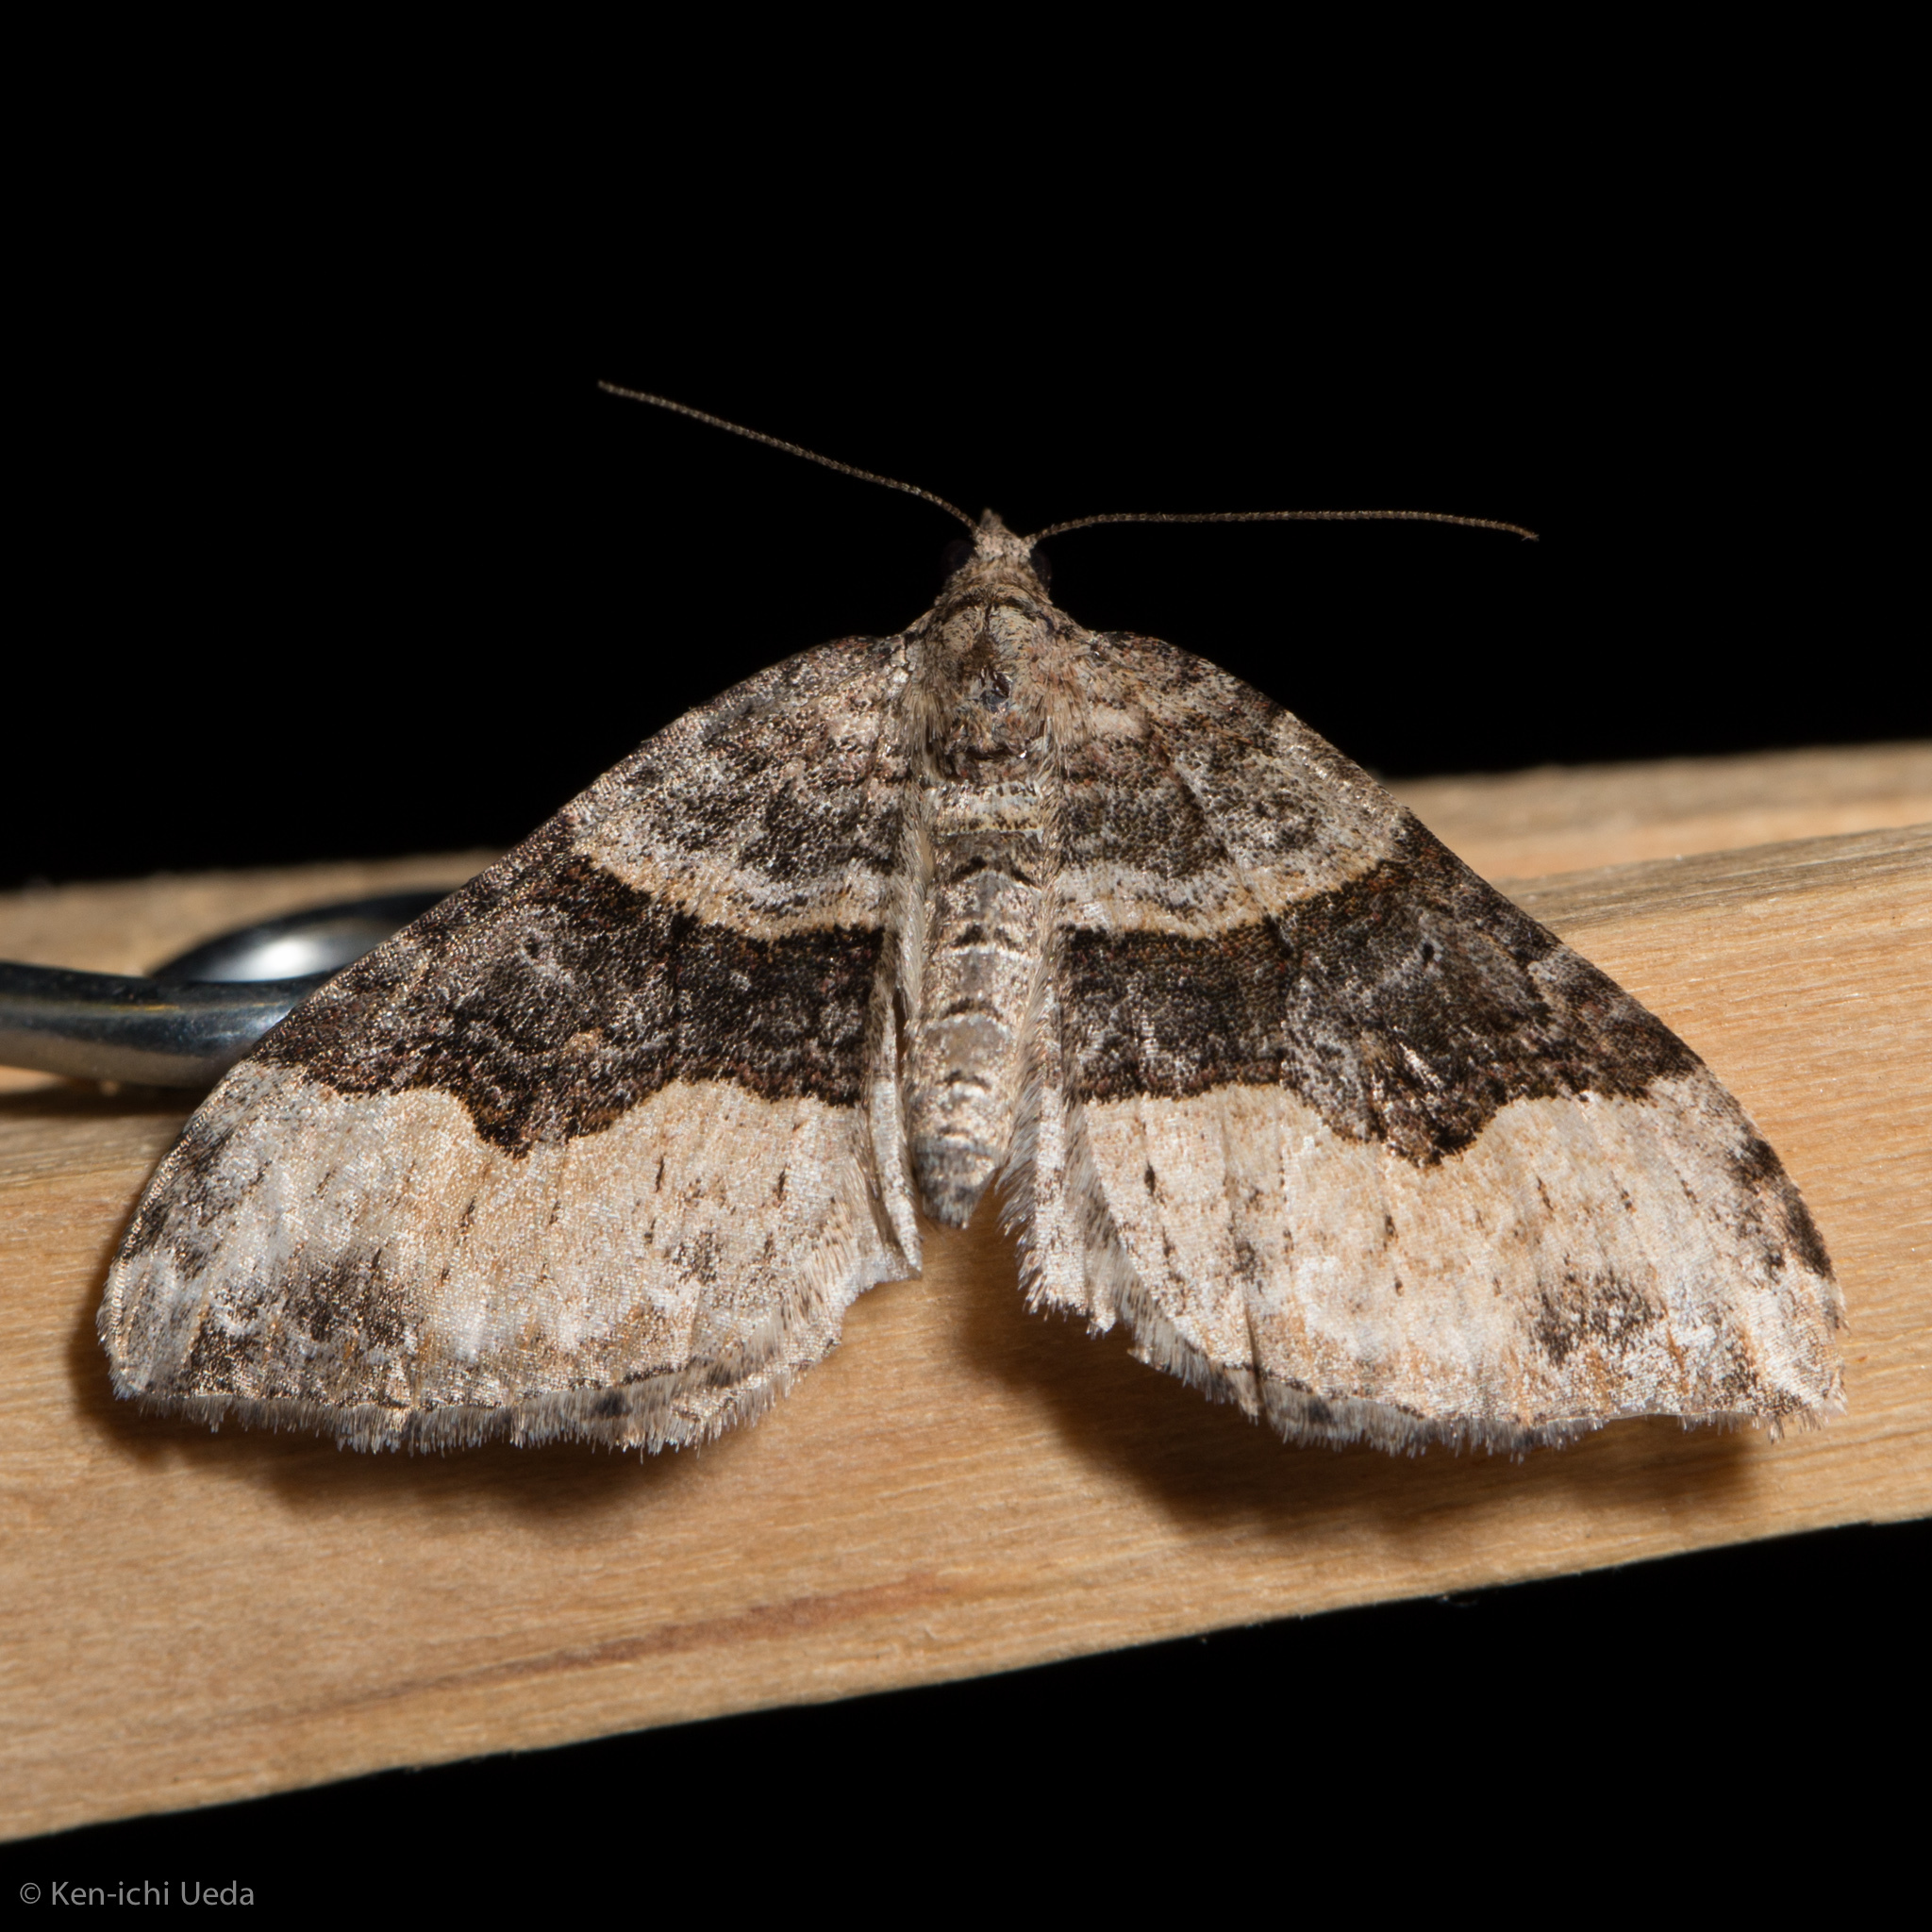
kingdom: Animalia
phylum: Arthropoda
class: Insecta
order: Lepidoptera
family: Geometridae
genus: Xanthorhoe
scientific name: Xanthorhoe defensaria
